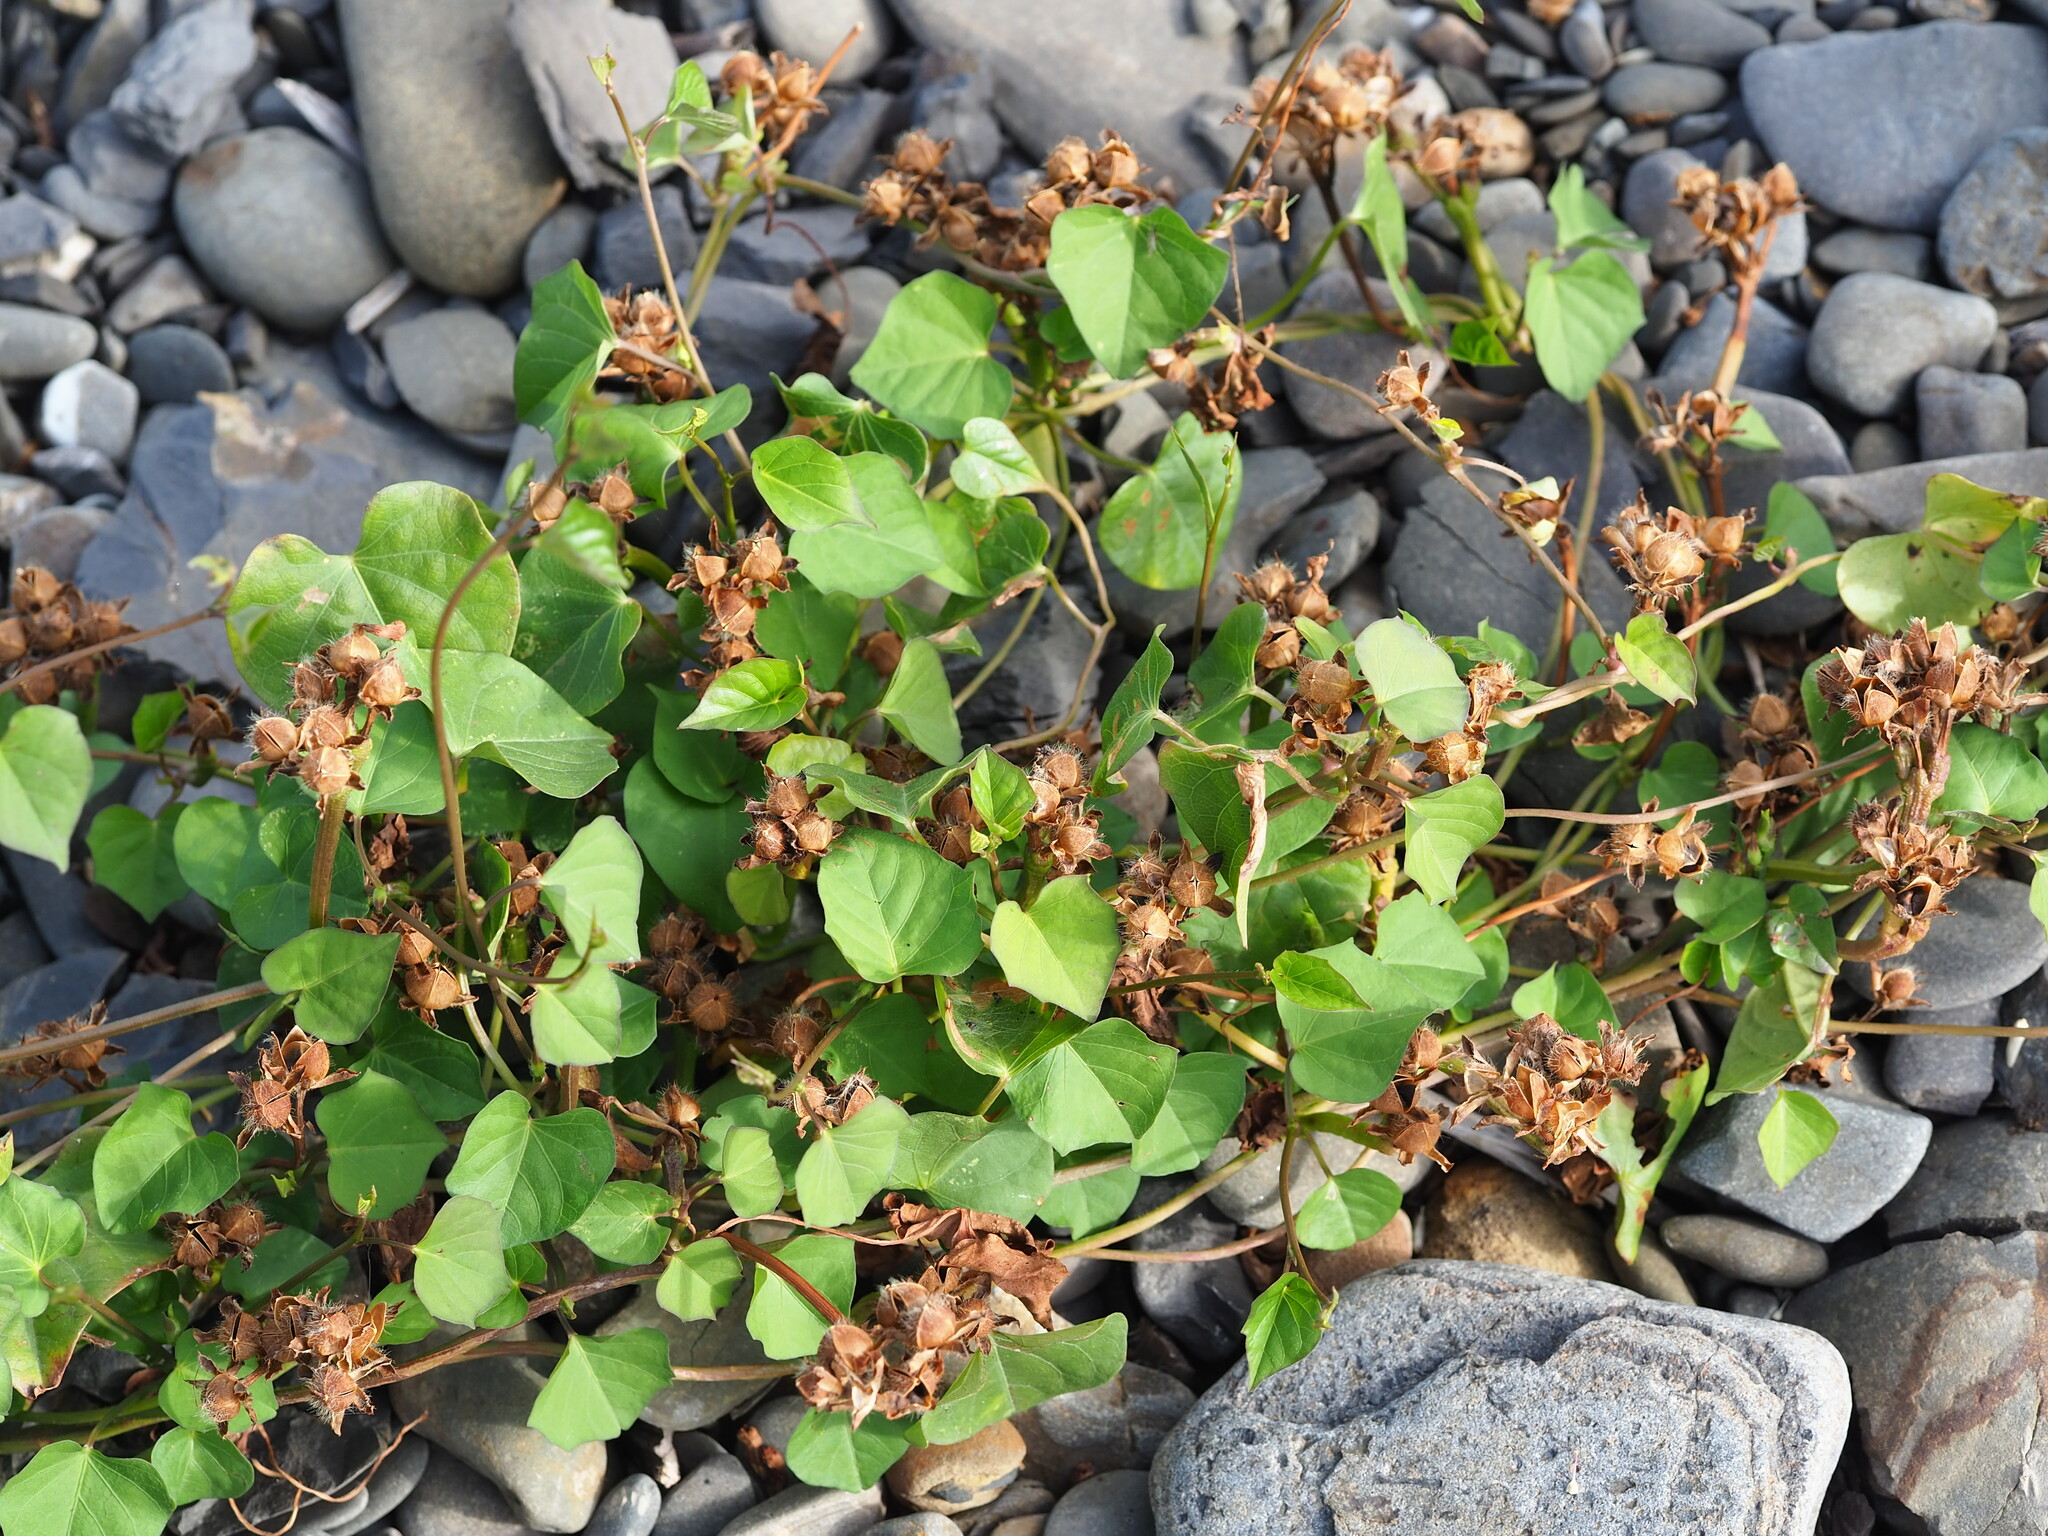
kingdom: Plantae
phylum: Tracheophyta
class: Magnoliopsida
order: Solanales
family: Convolvulaceae
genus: Ipomoea
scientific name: Ipomoea triloba
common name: Little-bell
